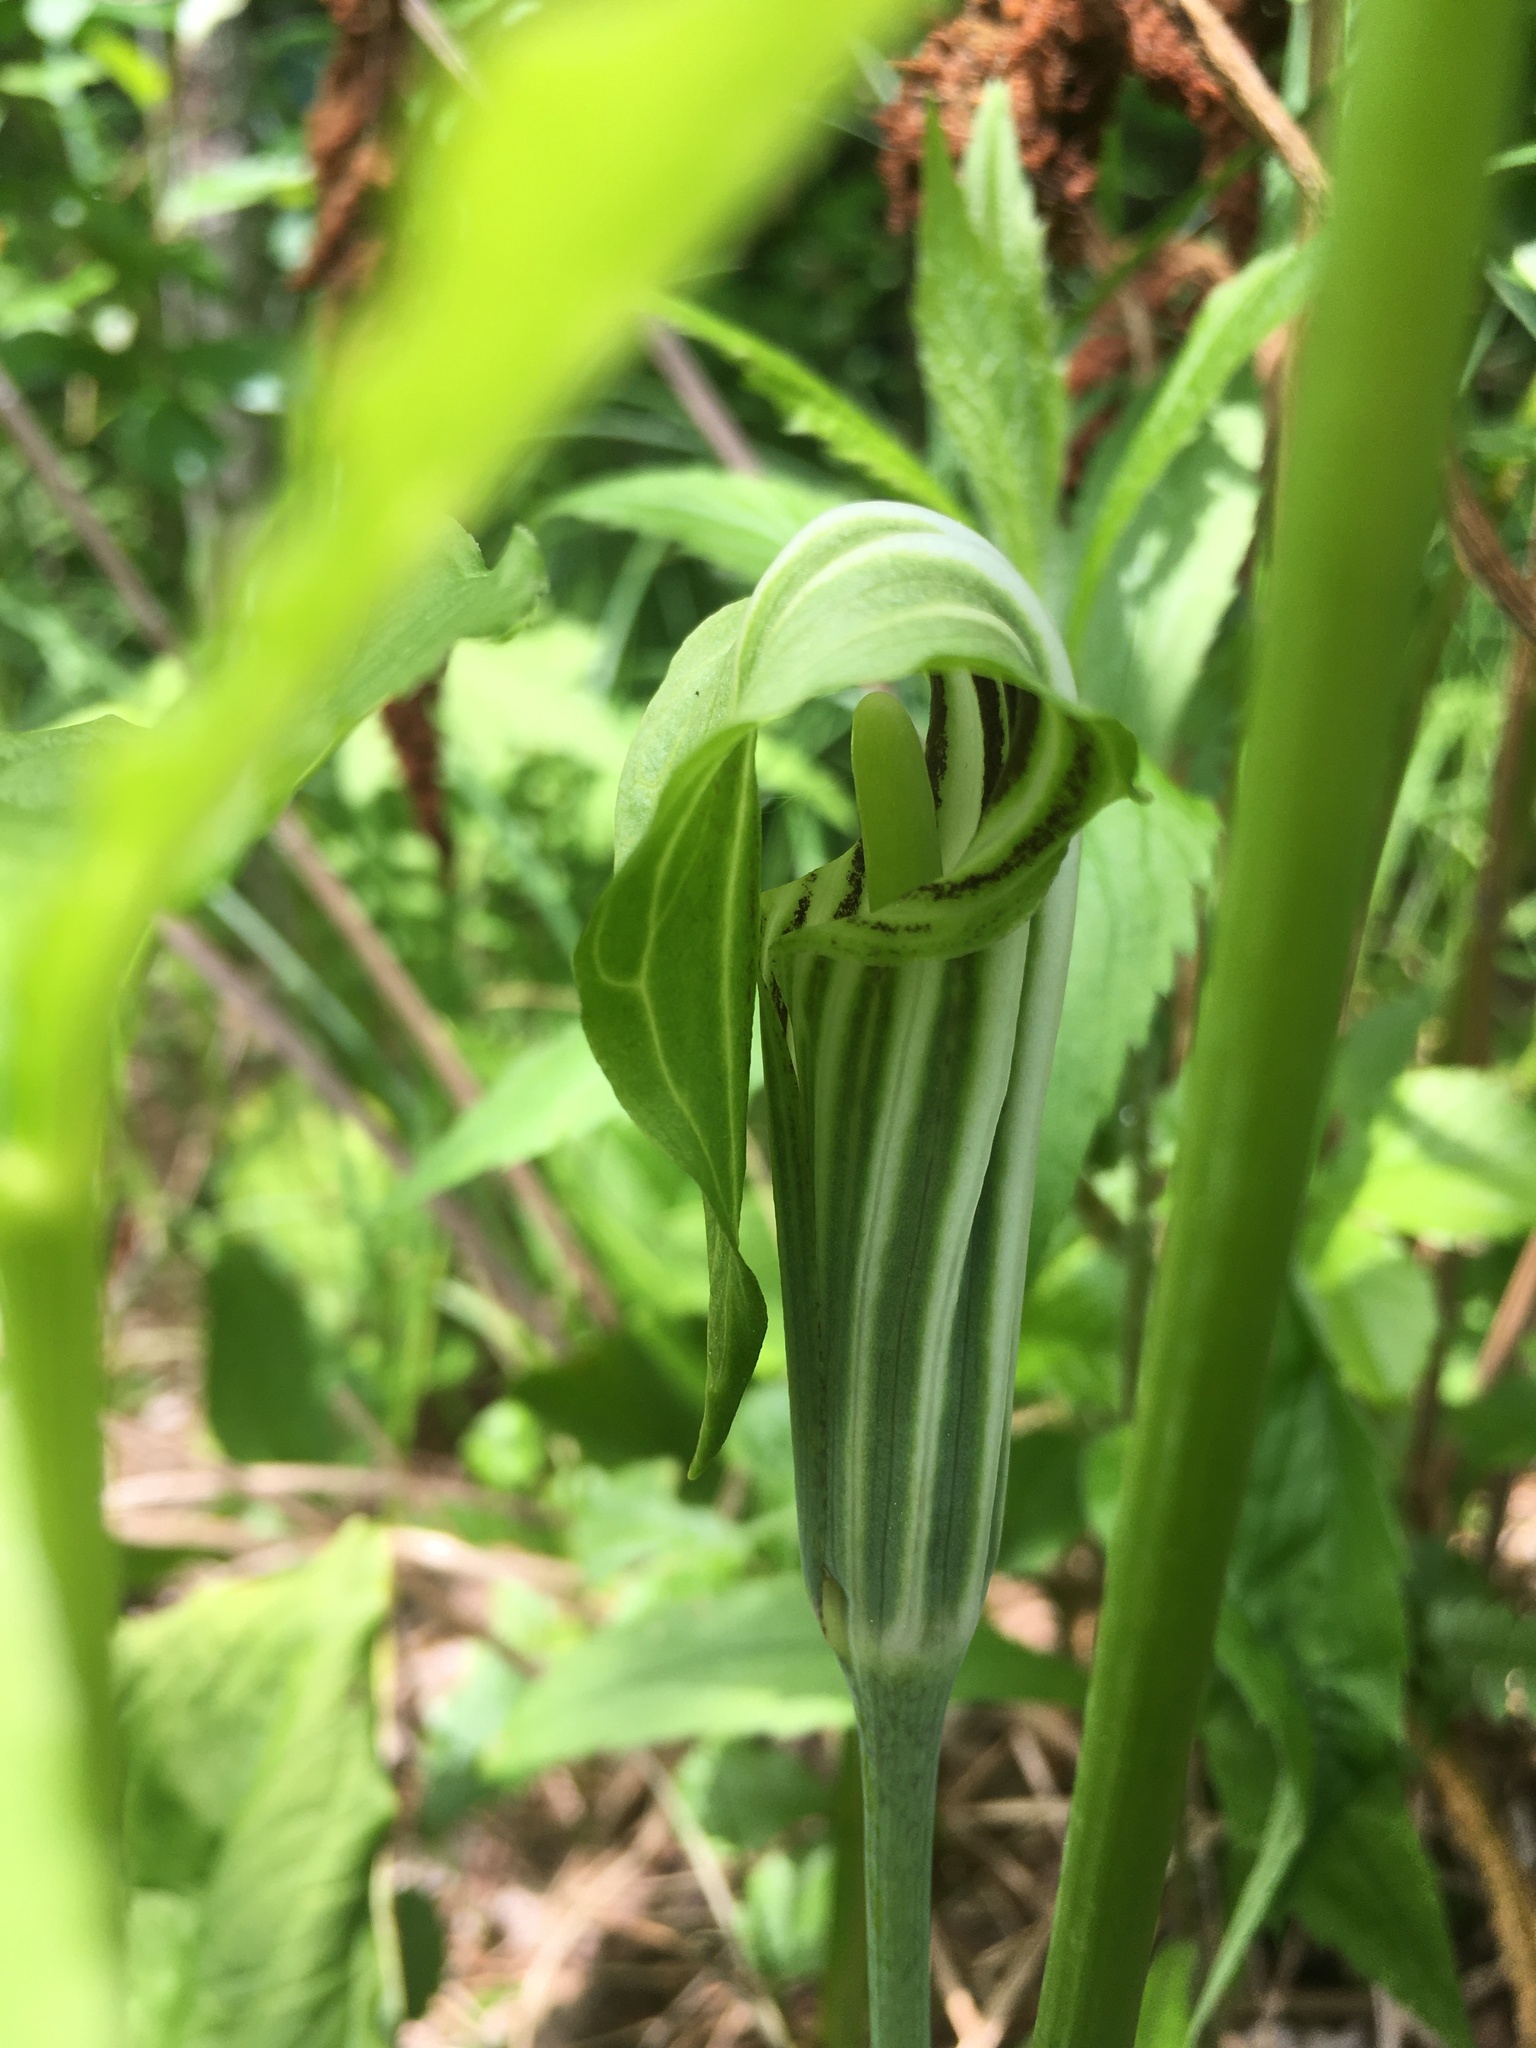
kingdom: Plantae
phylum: Tracheophyta
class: Liliopsida
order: Alismatales
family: Araceae
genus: Arisaema
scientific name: Arisaema stewardsonii
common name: Swamp jack-in-the-pulpit
